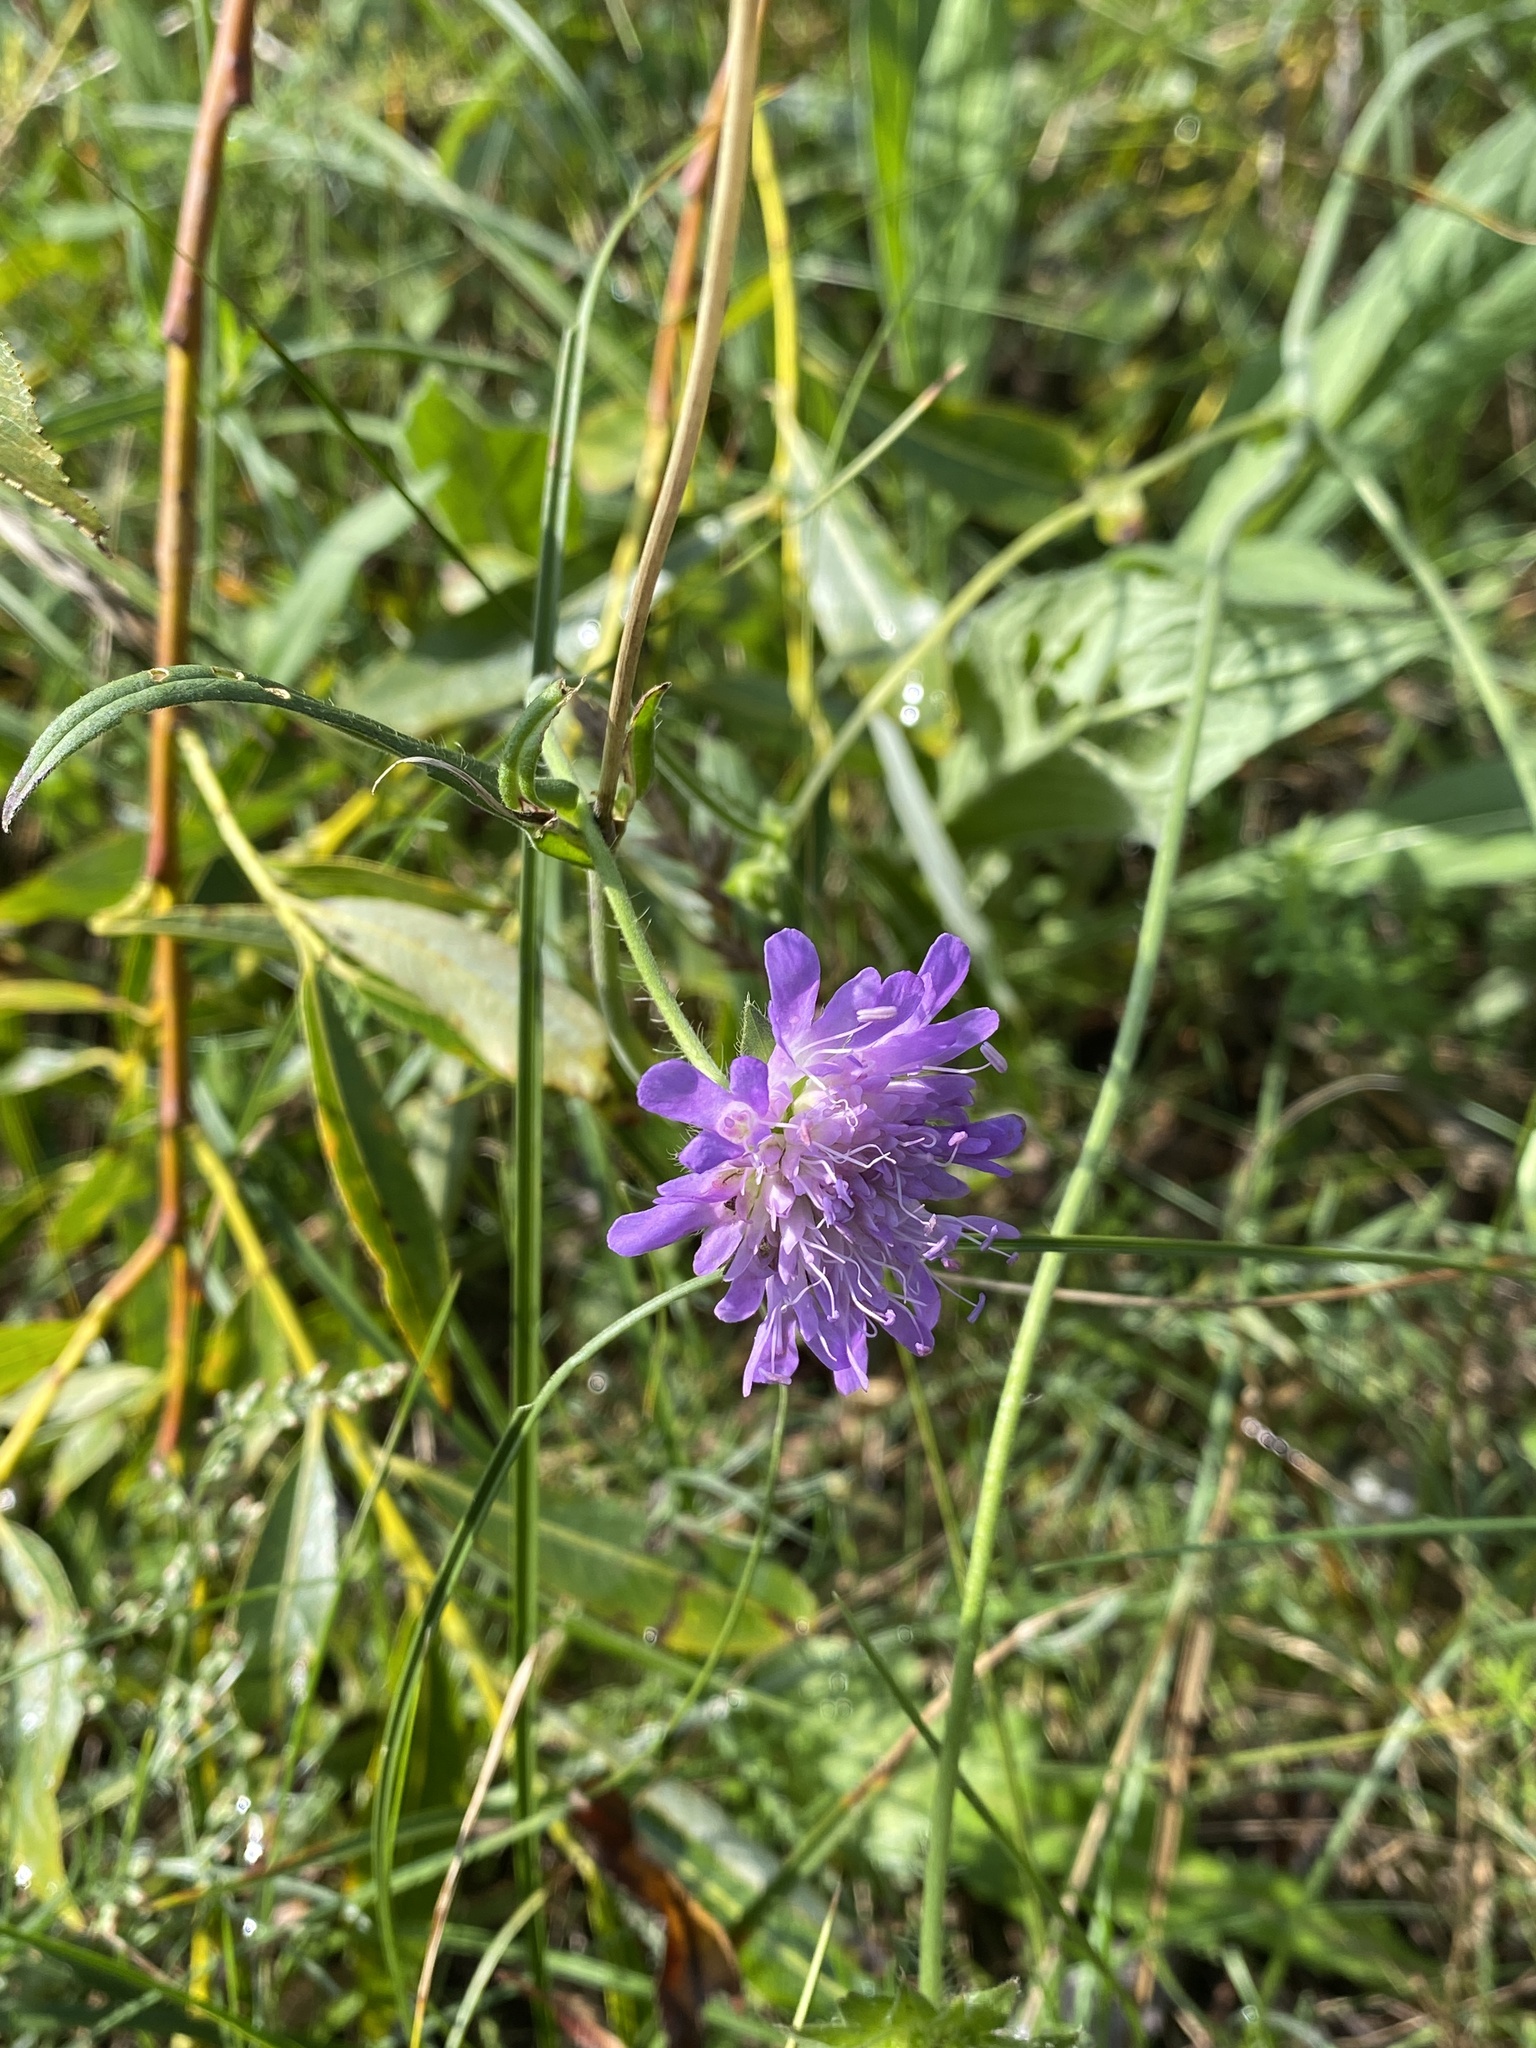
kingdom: Plantae
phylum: Tracheophyta
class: Magnoliopsida
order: Dipsacales
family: Caprifoliaceae
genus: Knautia
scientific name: Knautia arvensis
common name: Field scabiosa
